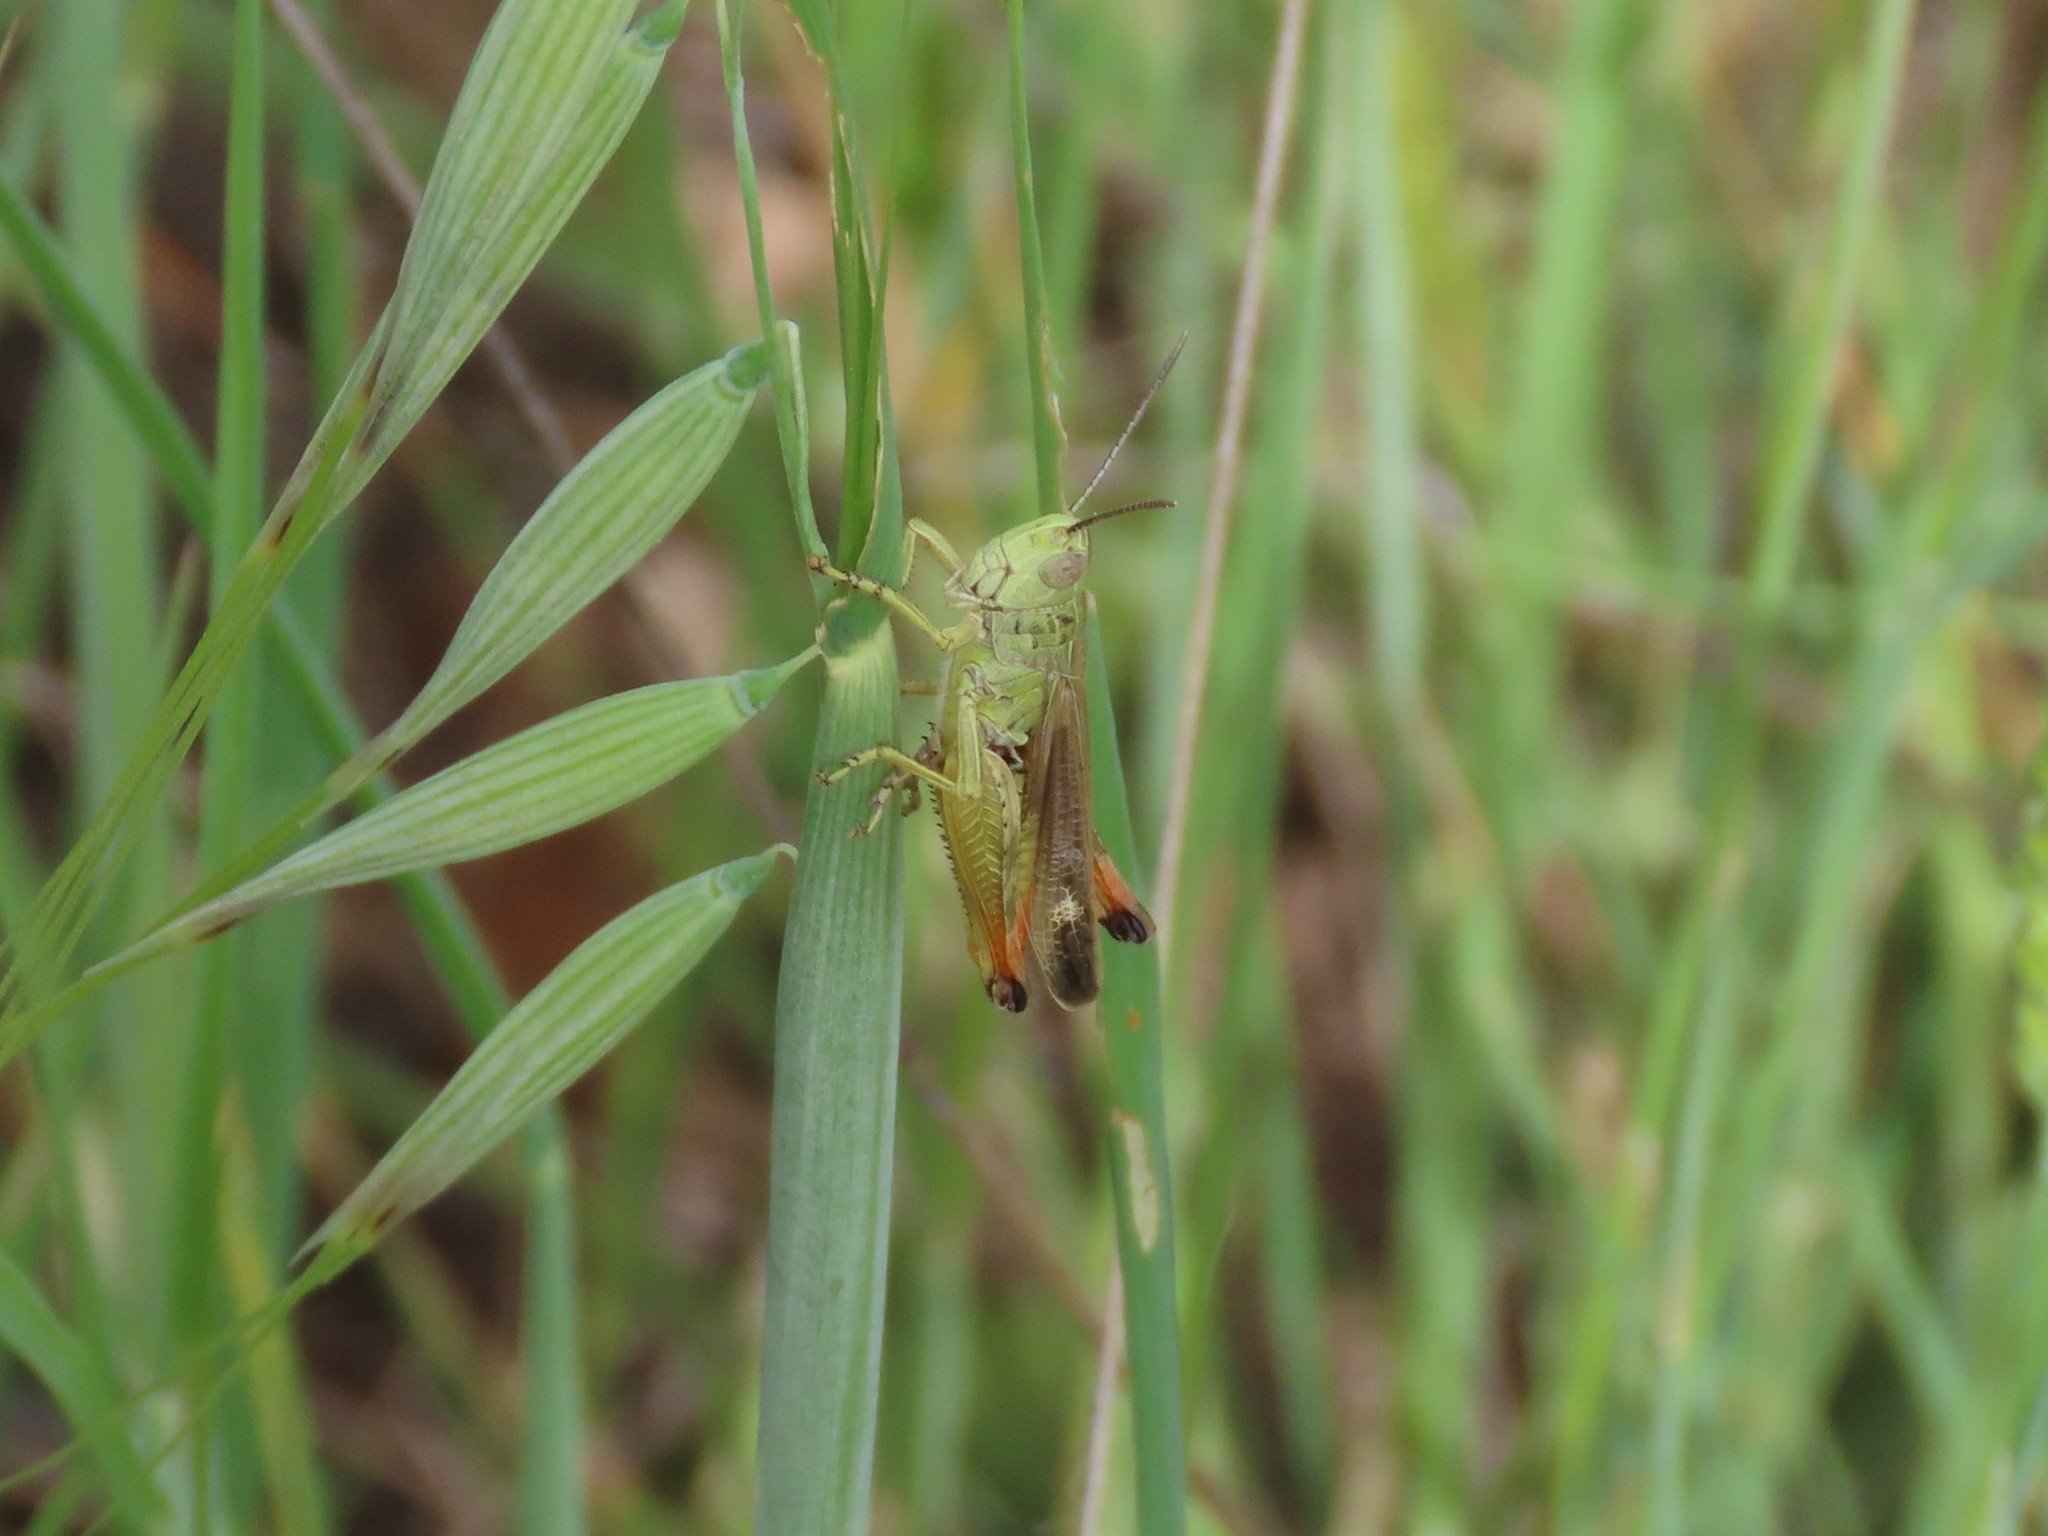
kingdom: Animalia
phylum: Arthropoda
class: Insecta
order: Orthoptera
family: Acrididae
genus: Chorthippus
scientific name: Chorthippus apicalis
